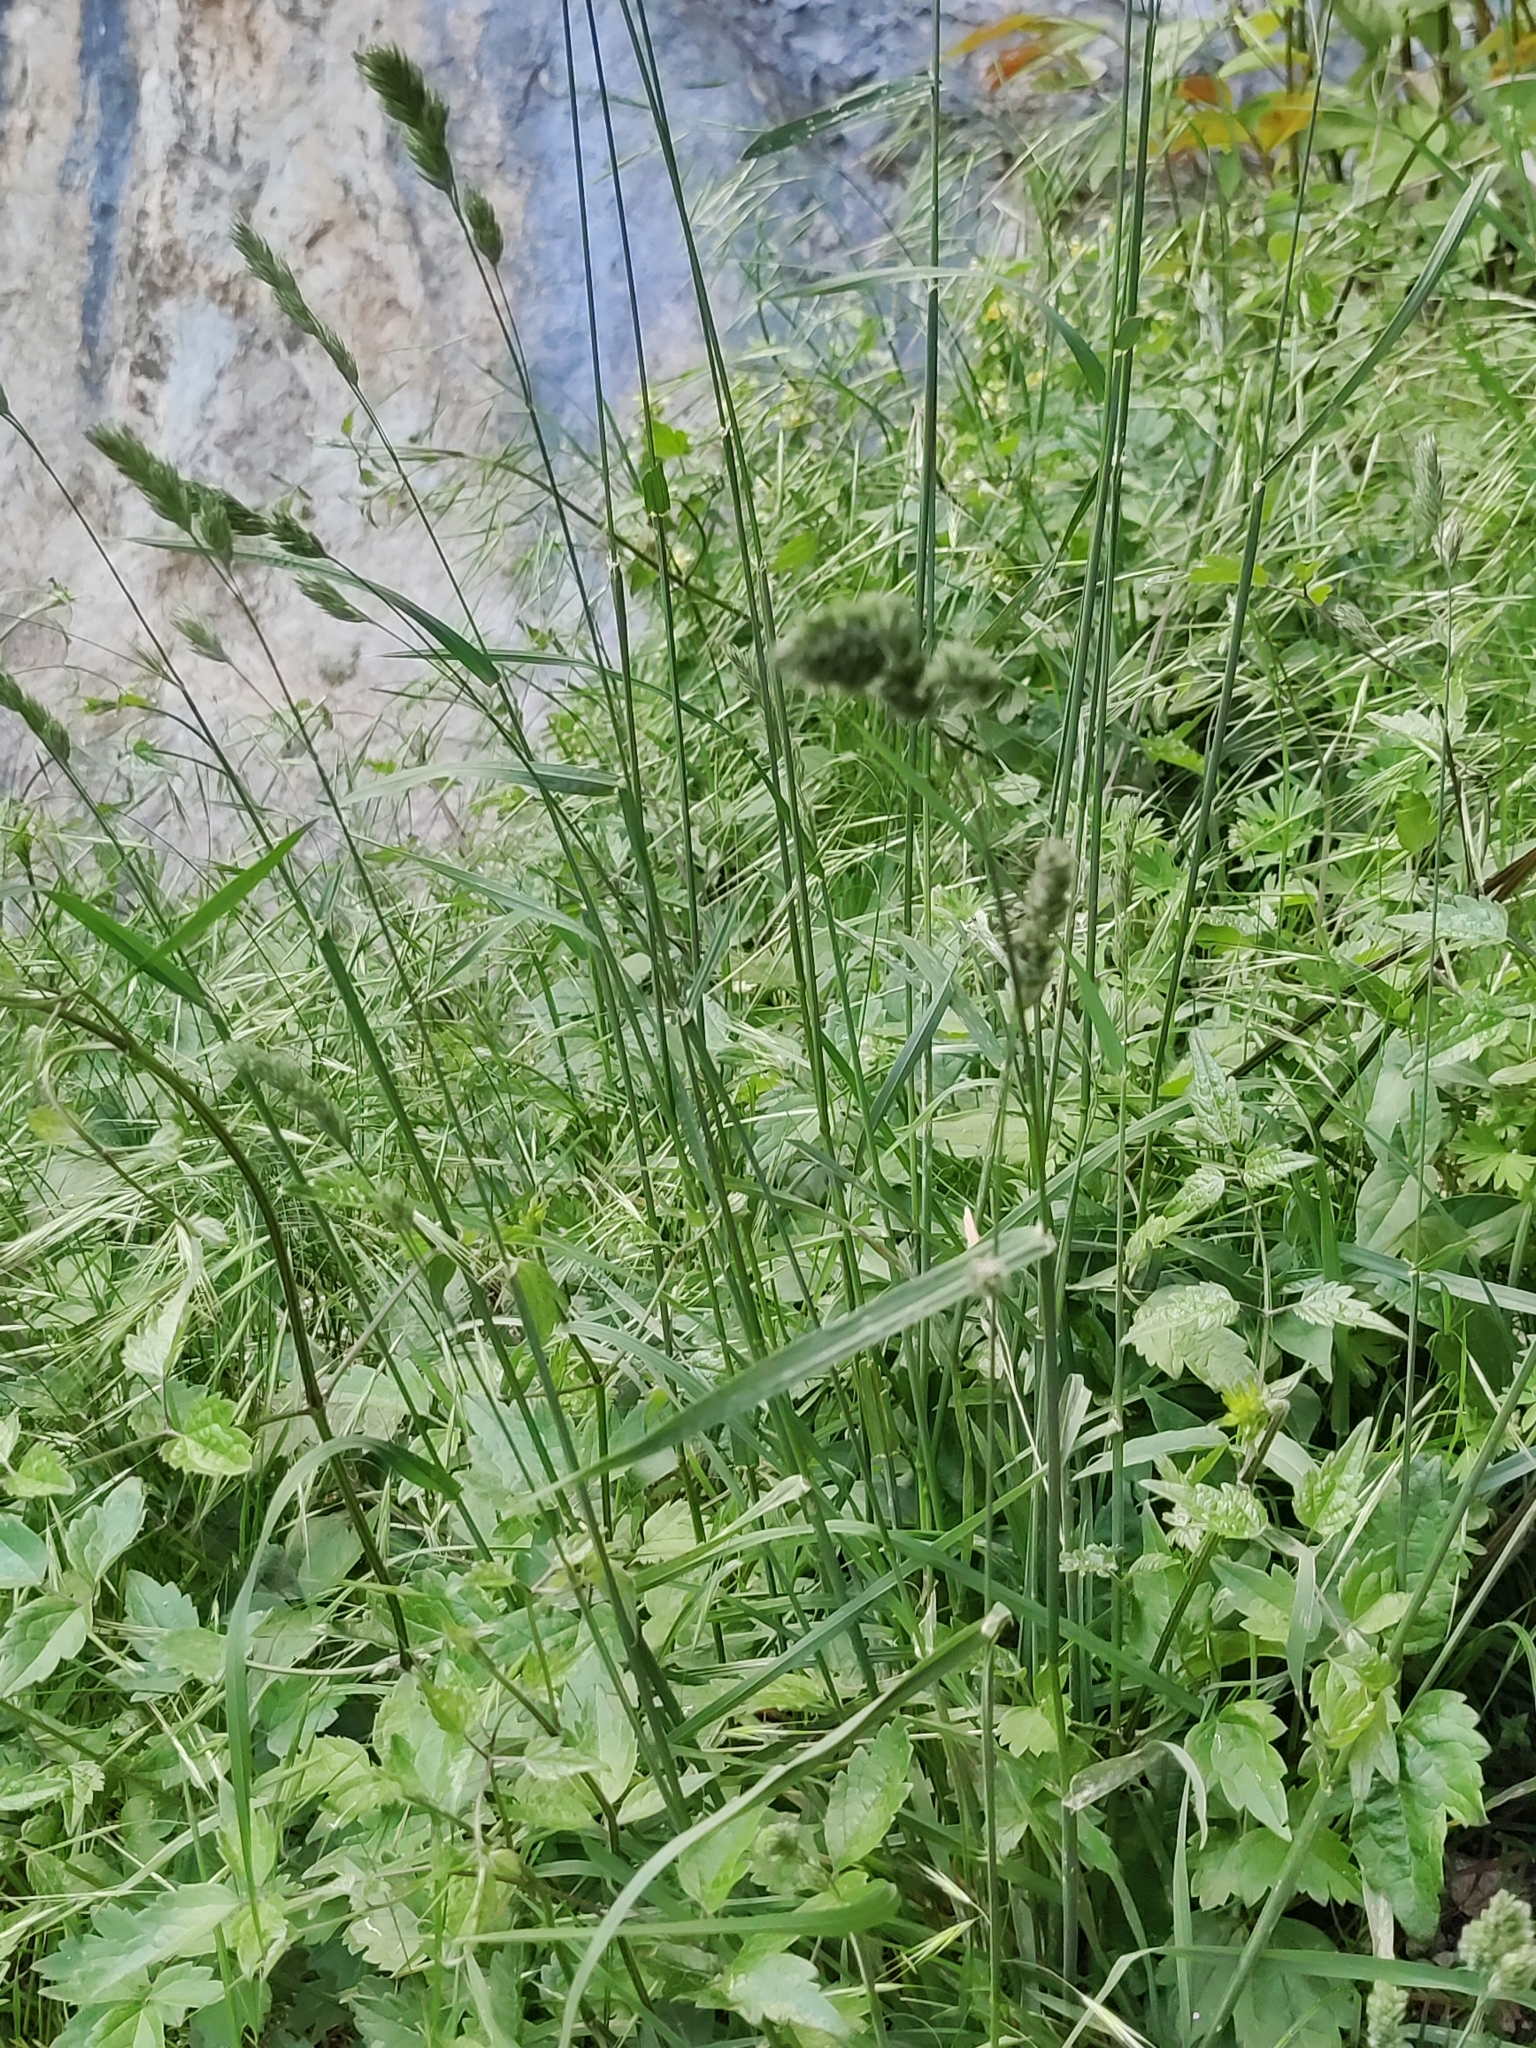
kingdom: Plantae
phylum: Tracheophyta
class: Liliopsida
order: Poales
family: Poaceae
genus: Dactylis
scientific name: Dactylis glomerata
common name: Orchardgrass
